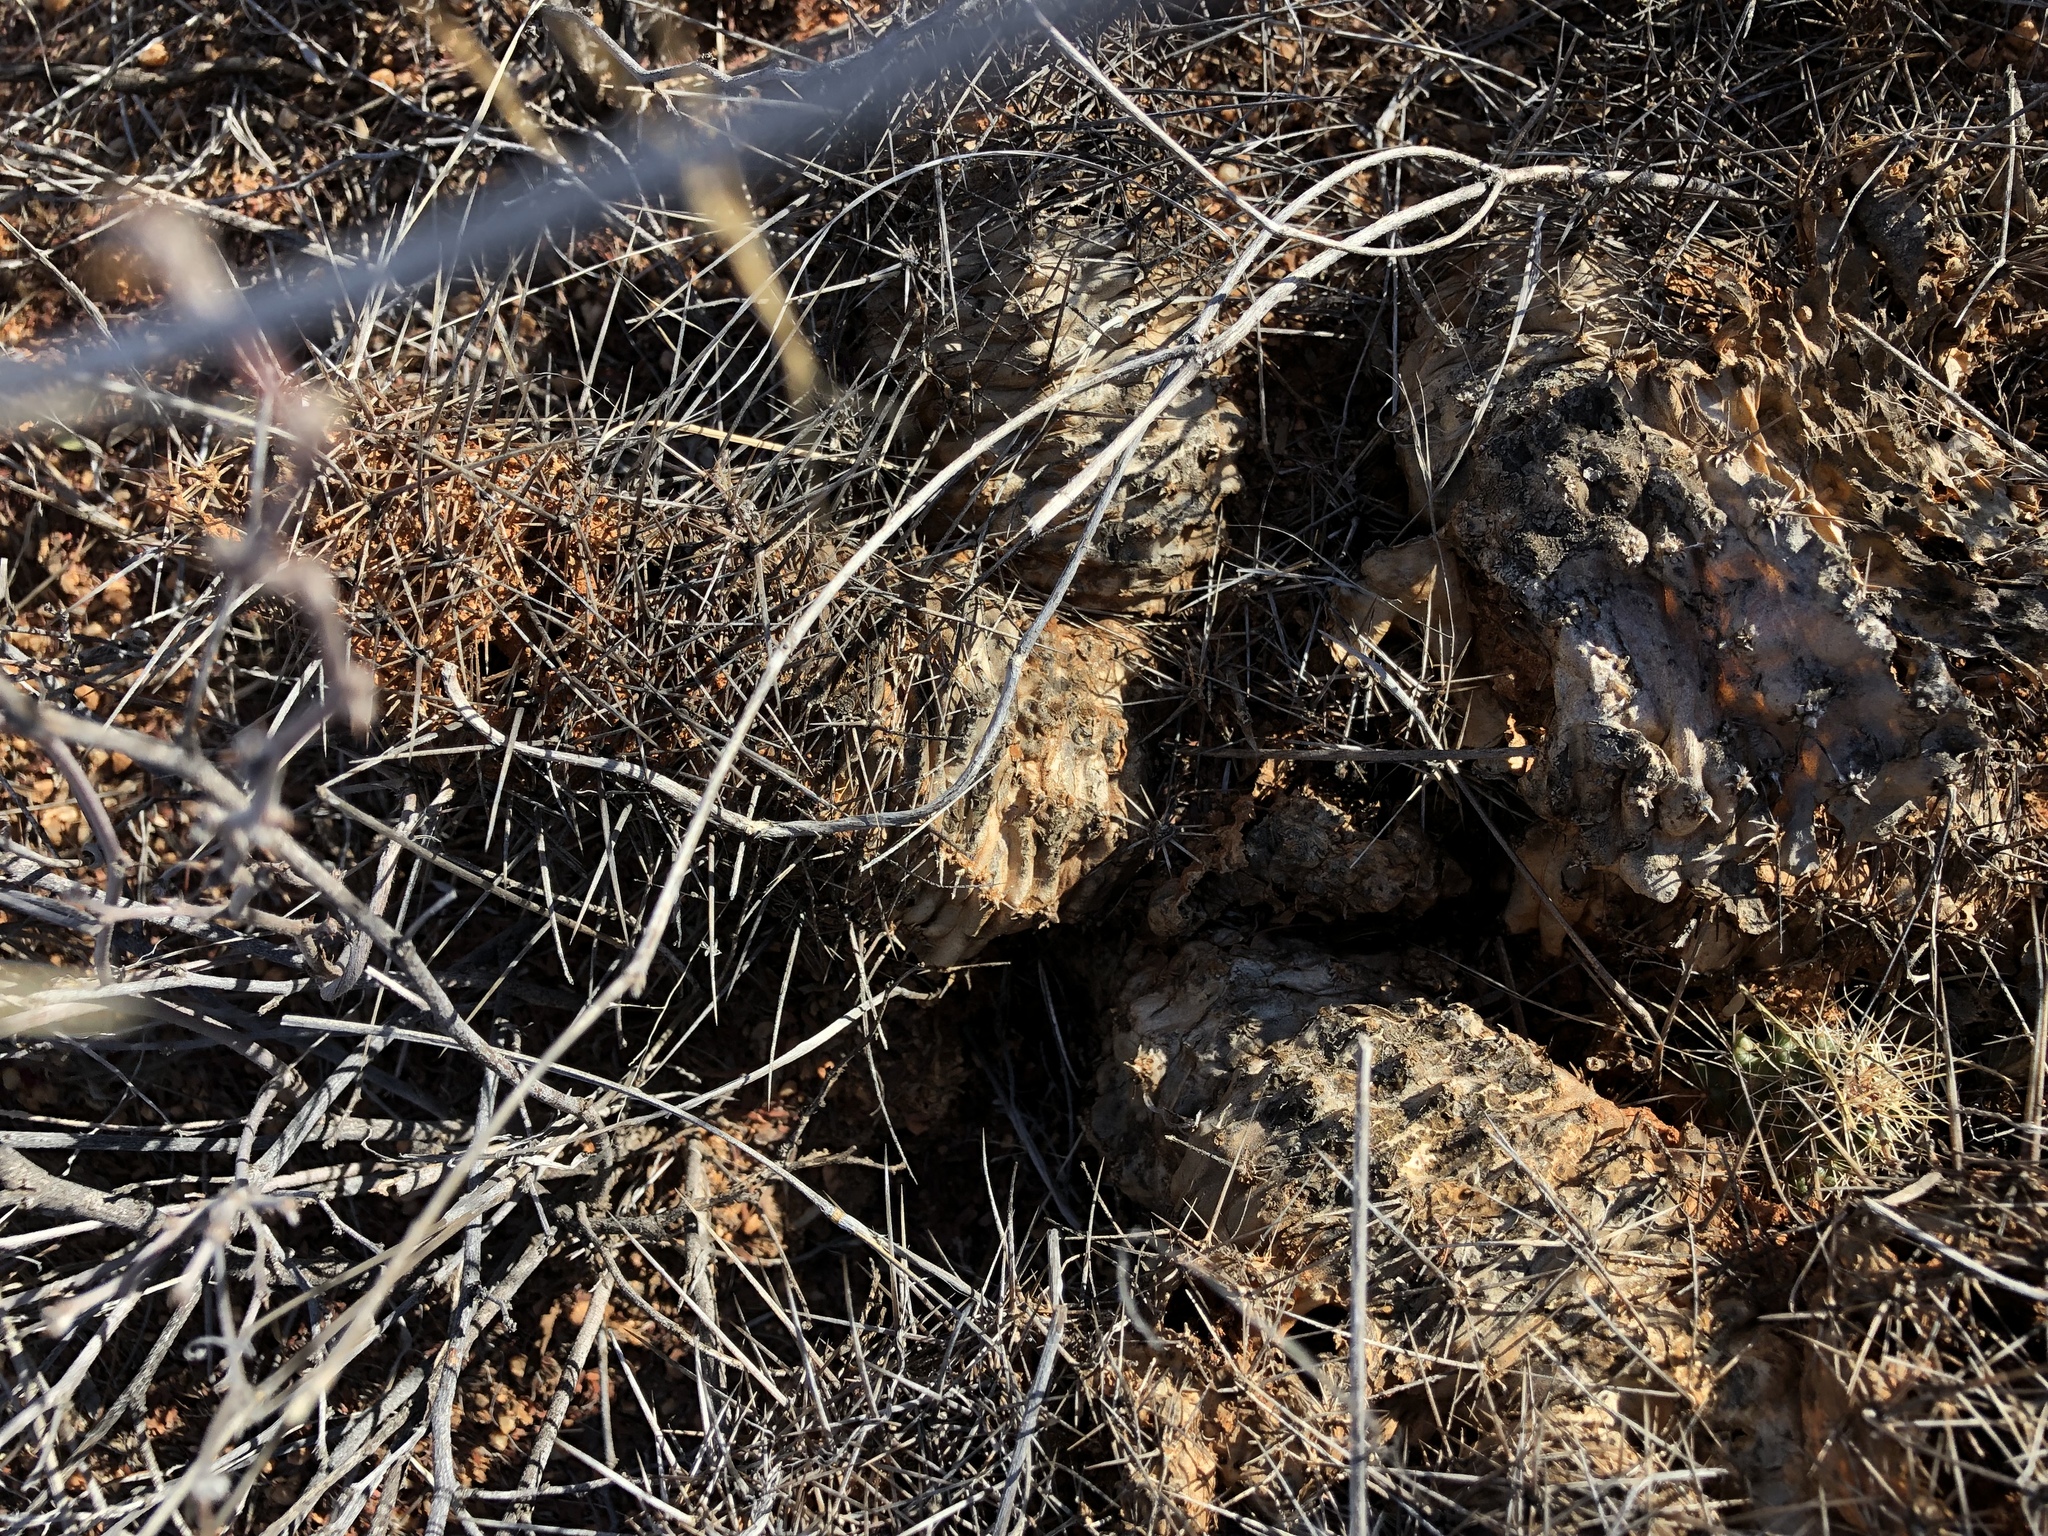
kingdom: Plantae
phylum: Tracheophyta
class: Magnoliopsida
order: Caryophyllales
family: Cactaceae
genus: Echinocereus
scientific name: Echinocereus fasciculatus
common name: Bundle hedgehog
